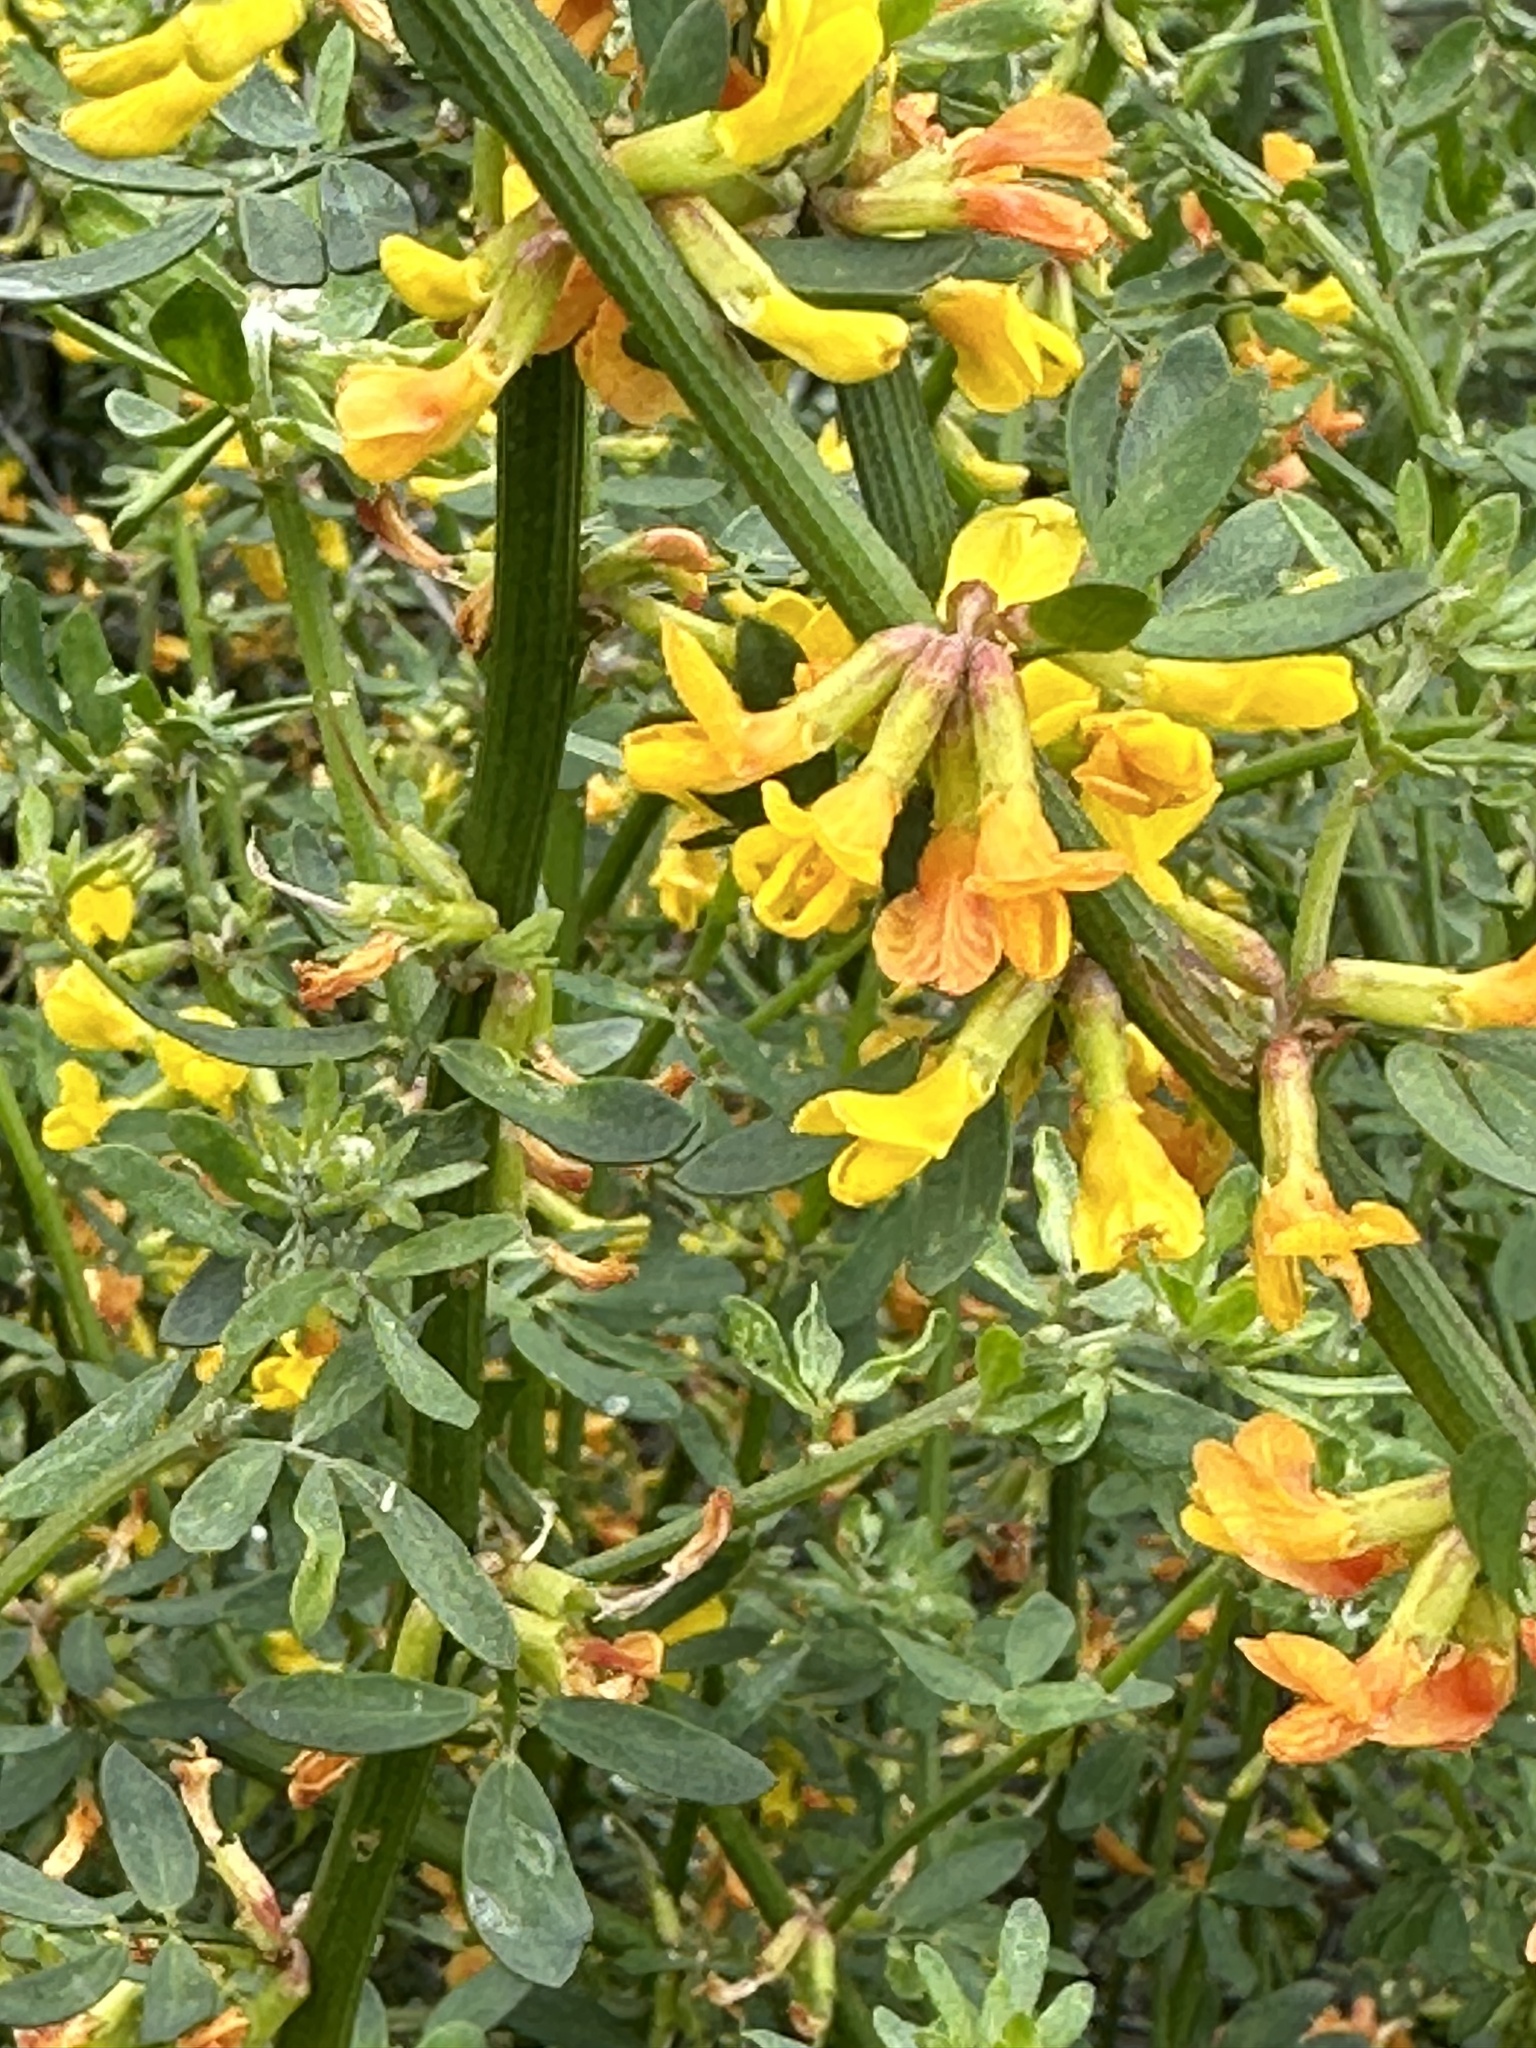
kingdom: Plantae
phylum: Tracheophyta
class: Magnoliopsida
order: Fabales
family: Fabaceae
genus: Acmispon
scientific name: Acmispon glaber
